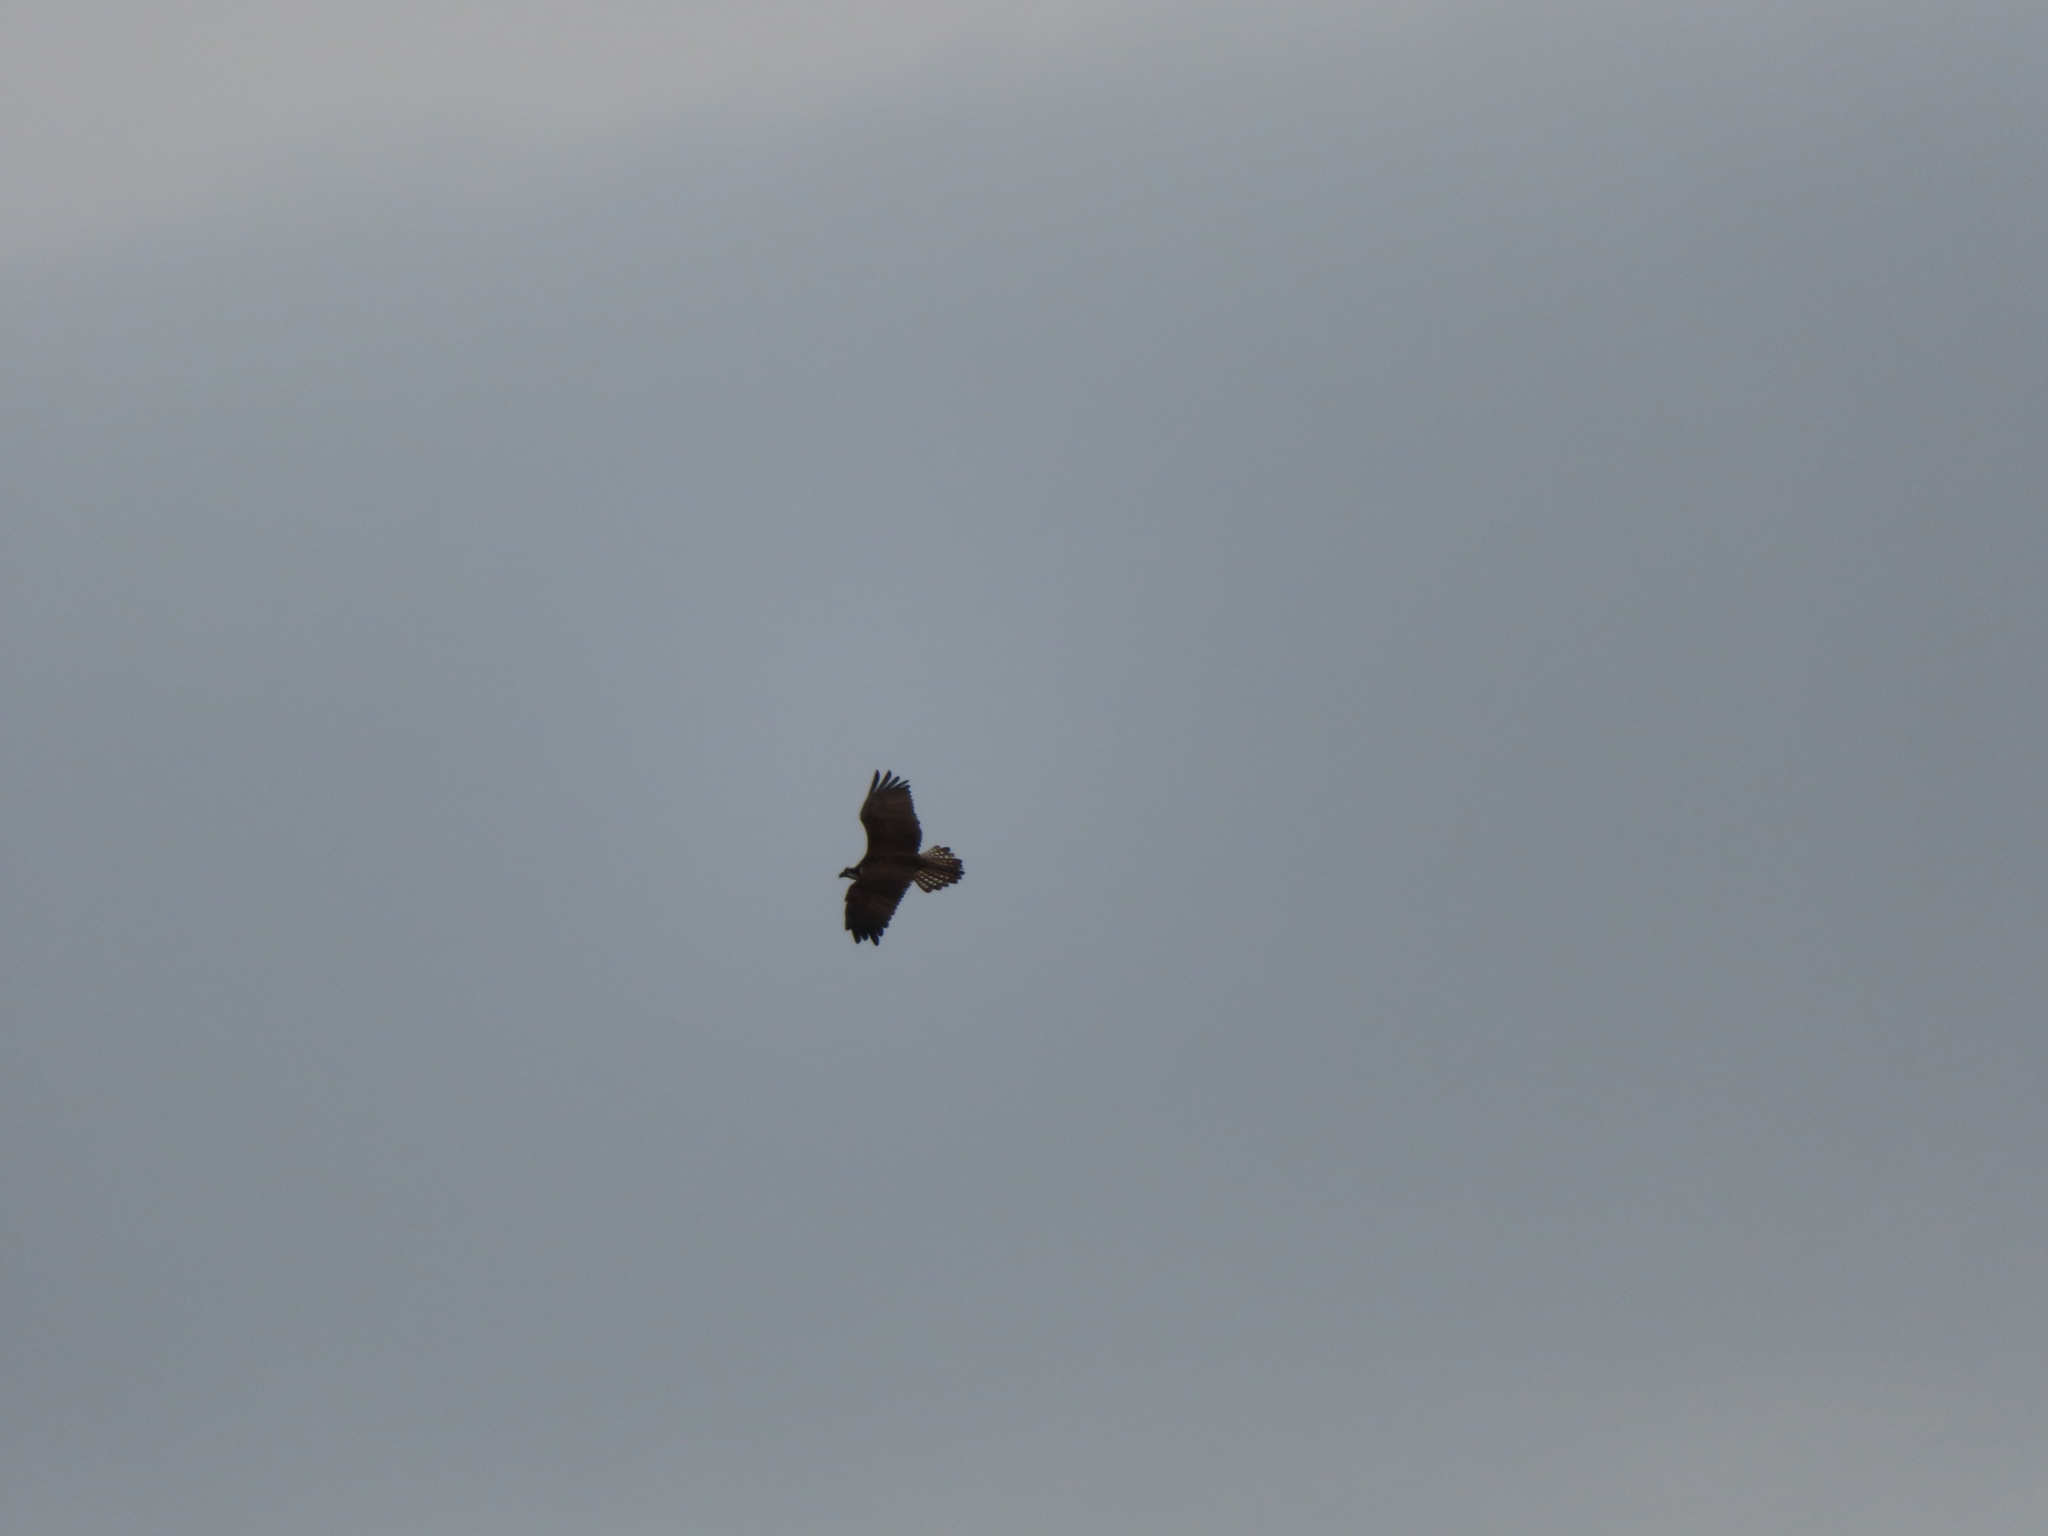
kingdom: Animalia
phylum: Chordata
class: Aves
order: Accipitriformes
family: Pandionidae
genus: Pandion
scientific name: Pandion haliaetus
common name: Osprey
